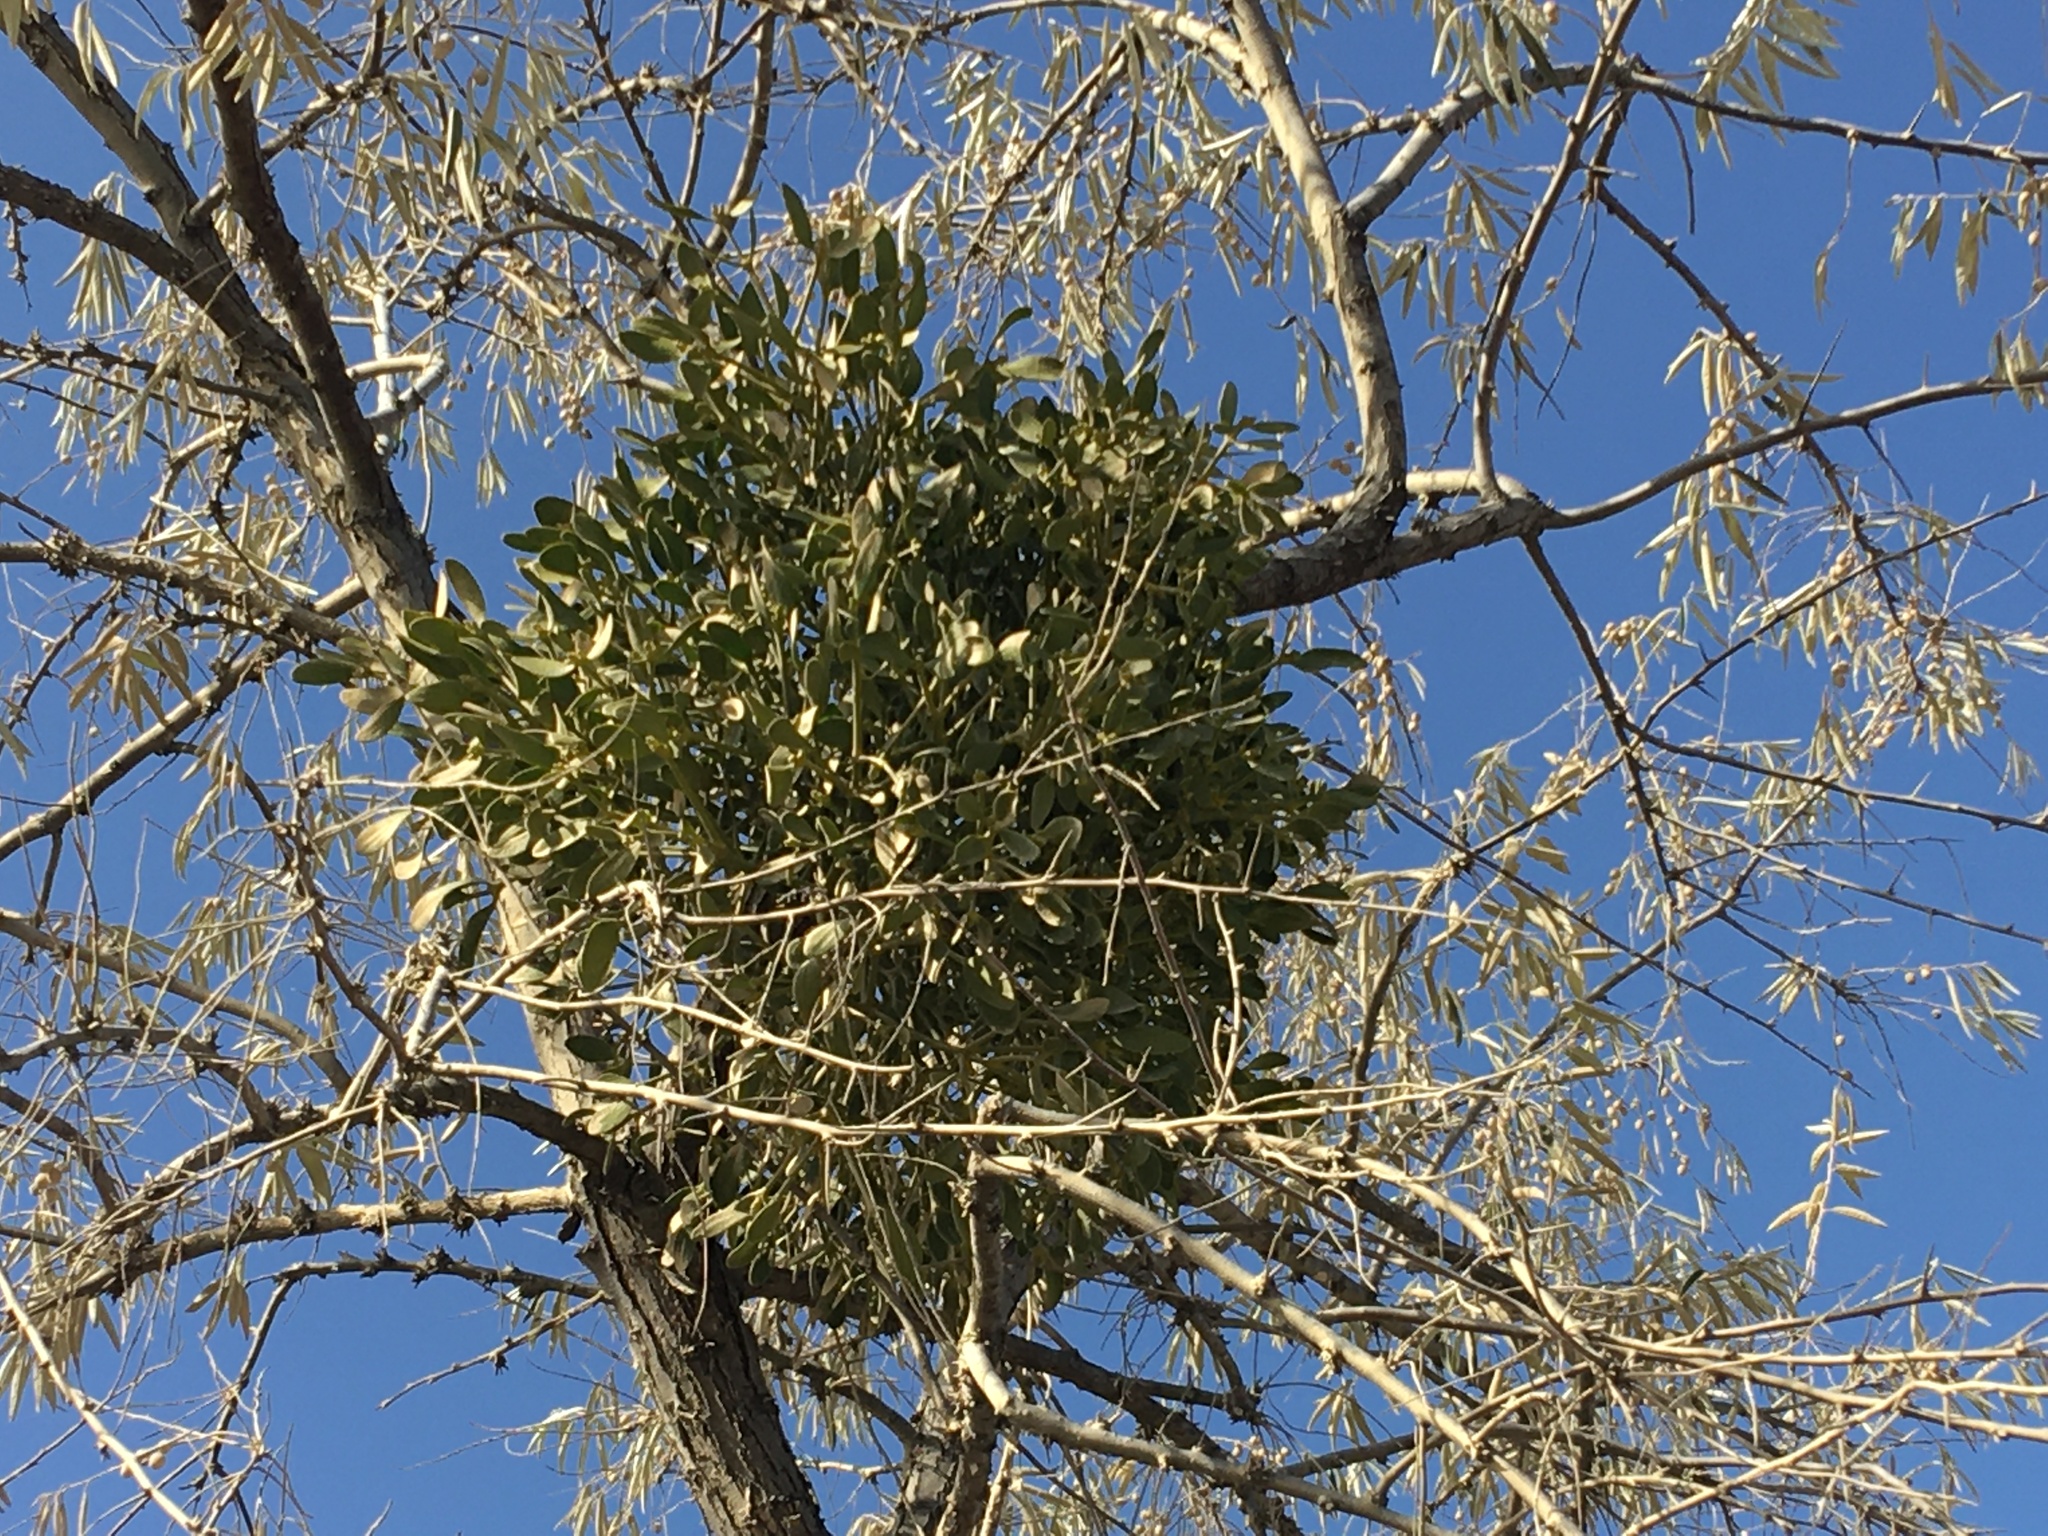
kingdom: Plantae
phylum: Tracheophyta
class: Magnoliopsida
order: Santalales
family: Viscaceae
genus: Viscum
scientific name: Viscum album
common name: Mistletoe
